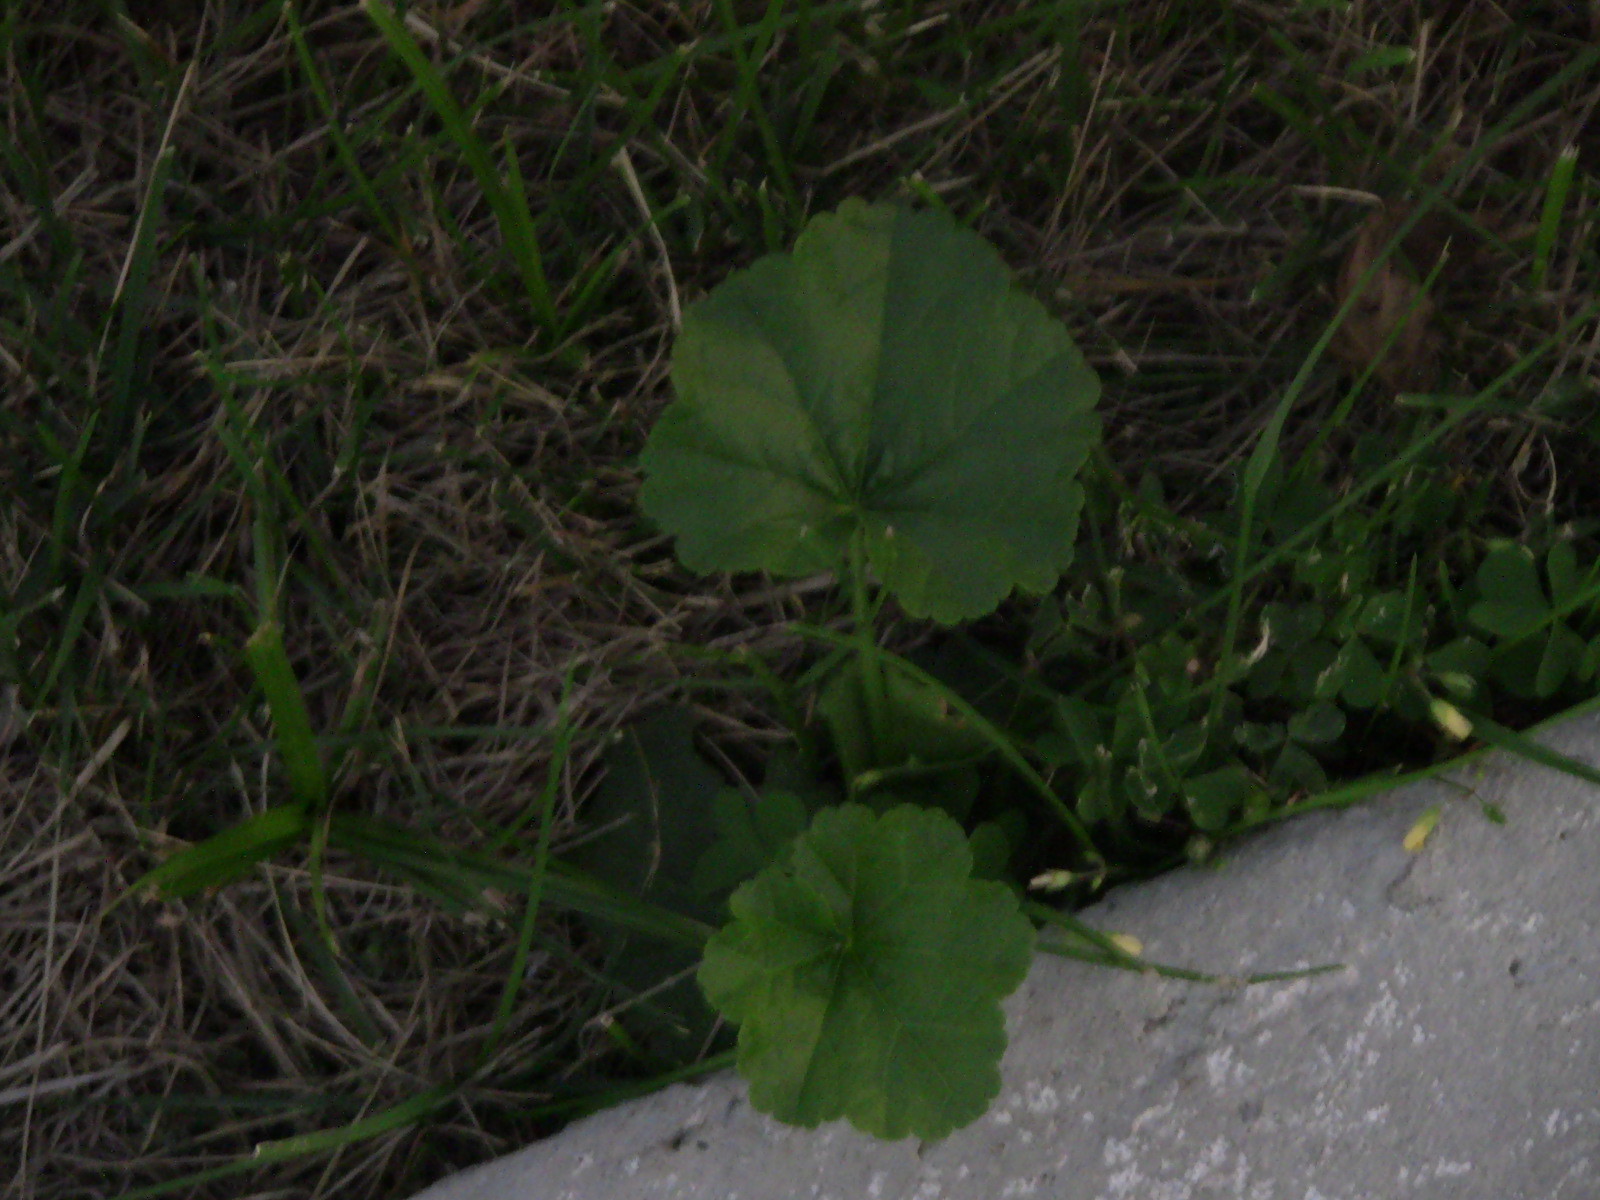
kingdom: Plantae
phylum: Tracheophyta
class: Magnoliopsida
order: Malvales
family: Malvaceae
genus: Malva
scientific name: Malva
